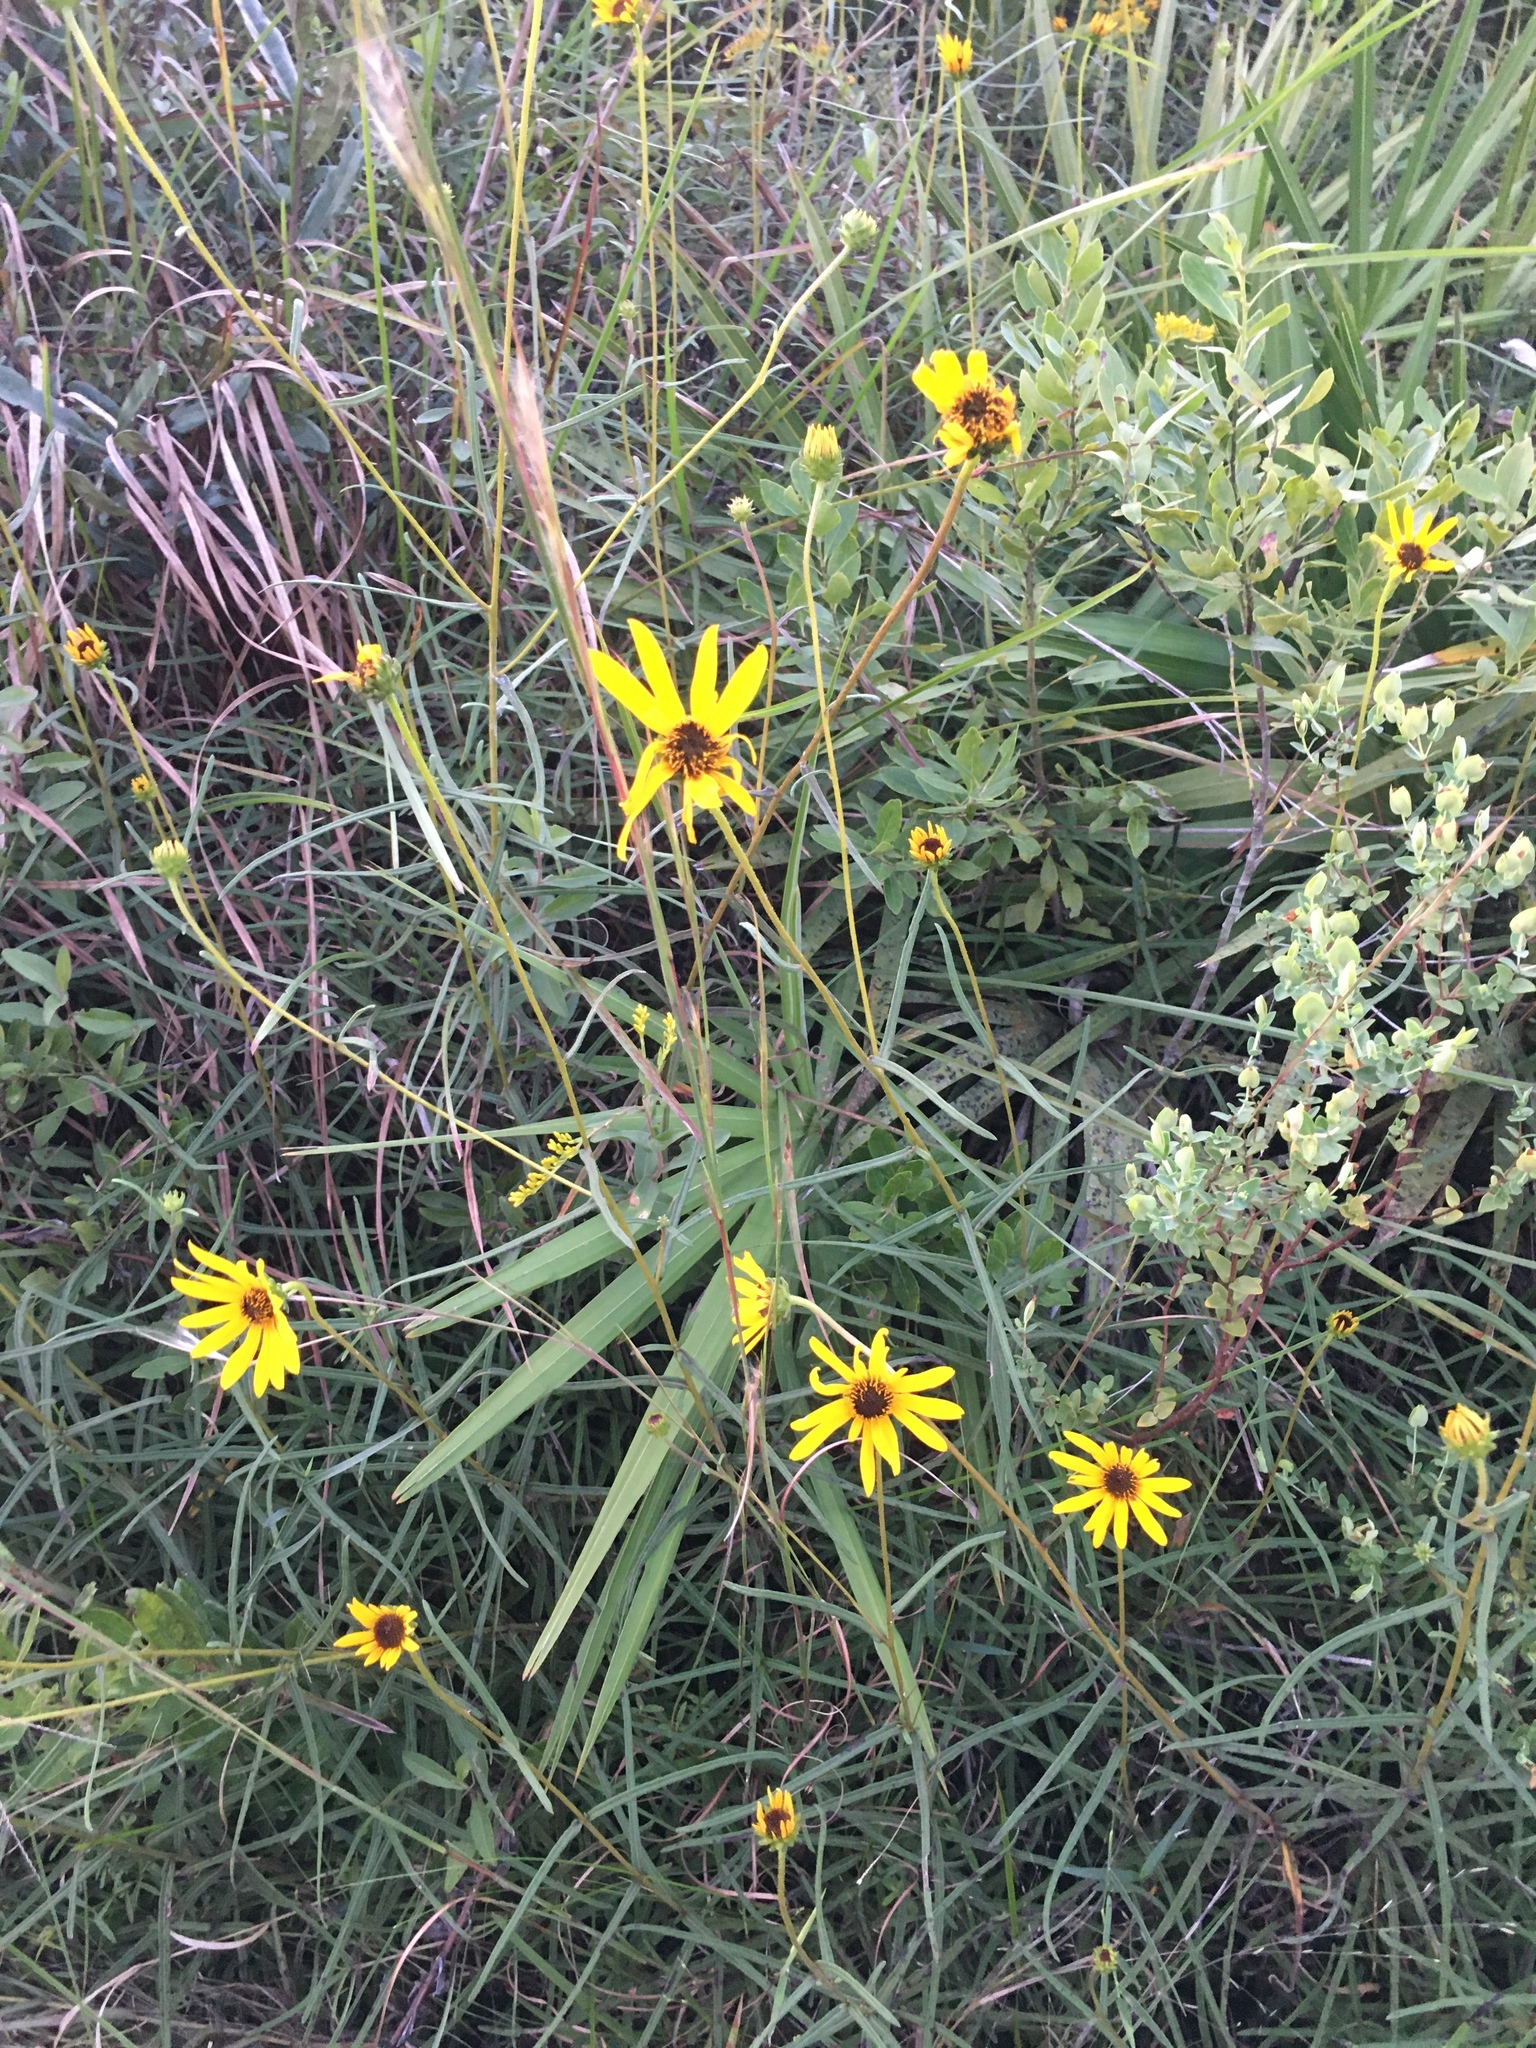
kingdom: Plantae
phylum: Tracheophyta
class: Magnoliopsida
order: Asterales
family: Asteraceae
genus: Helianthus
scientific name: Helianthus angustifolius
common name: Swamp sunflower
